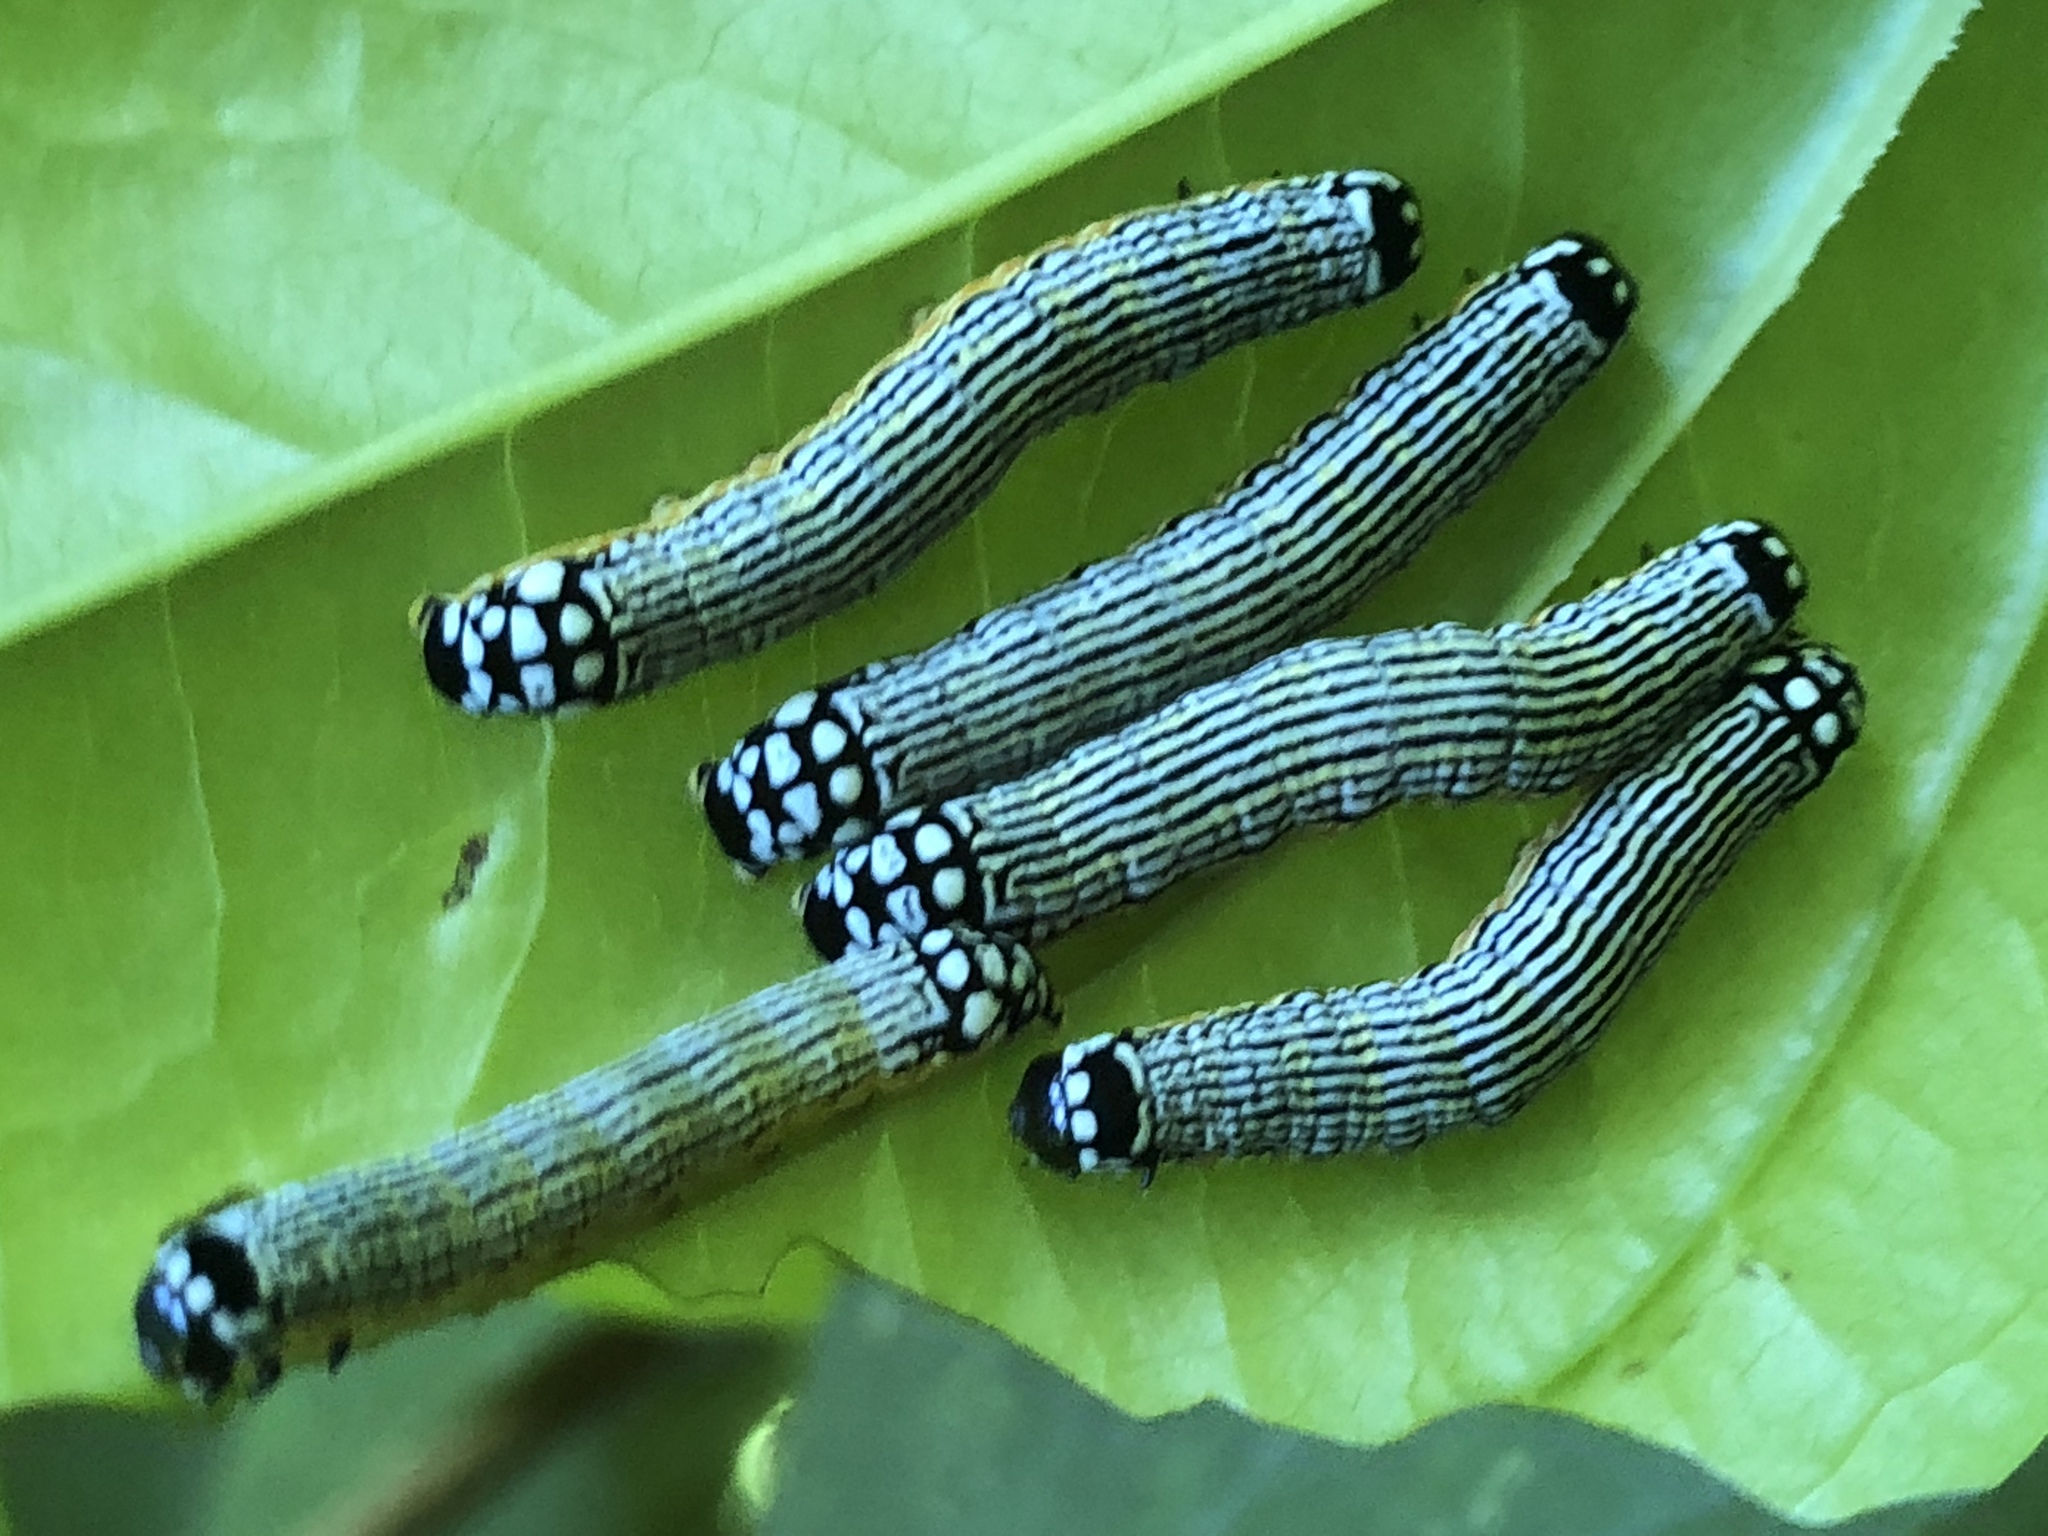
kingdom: Animalia
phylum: Arthropoda
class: Insecta
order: Lepidoptera
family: Noctuidae
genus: Phosphila
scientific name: Phosphila turbulenta
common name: Turbulent phosphila moth
